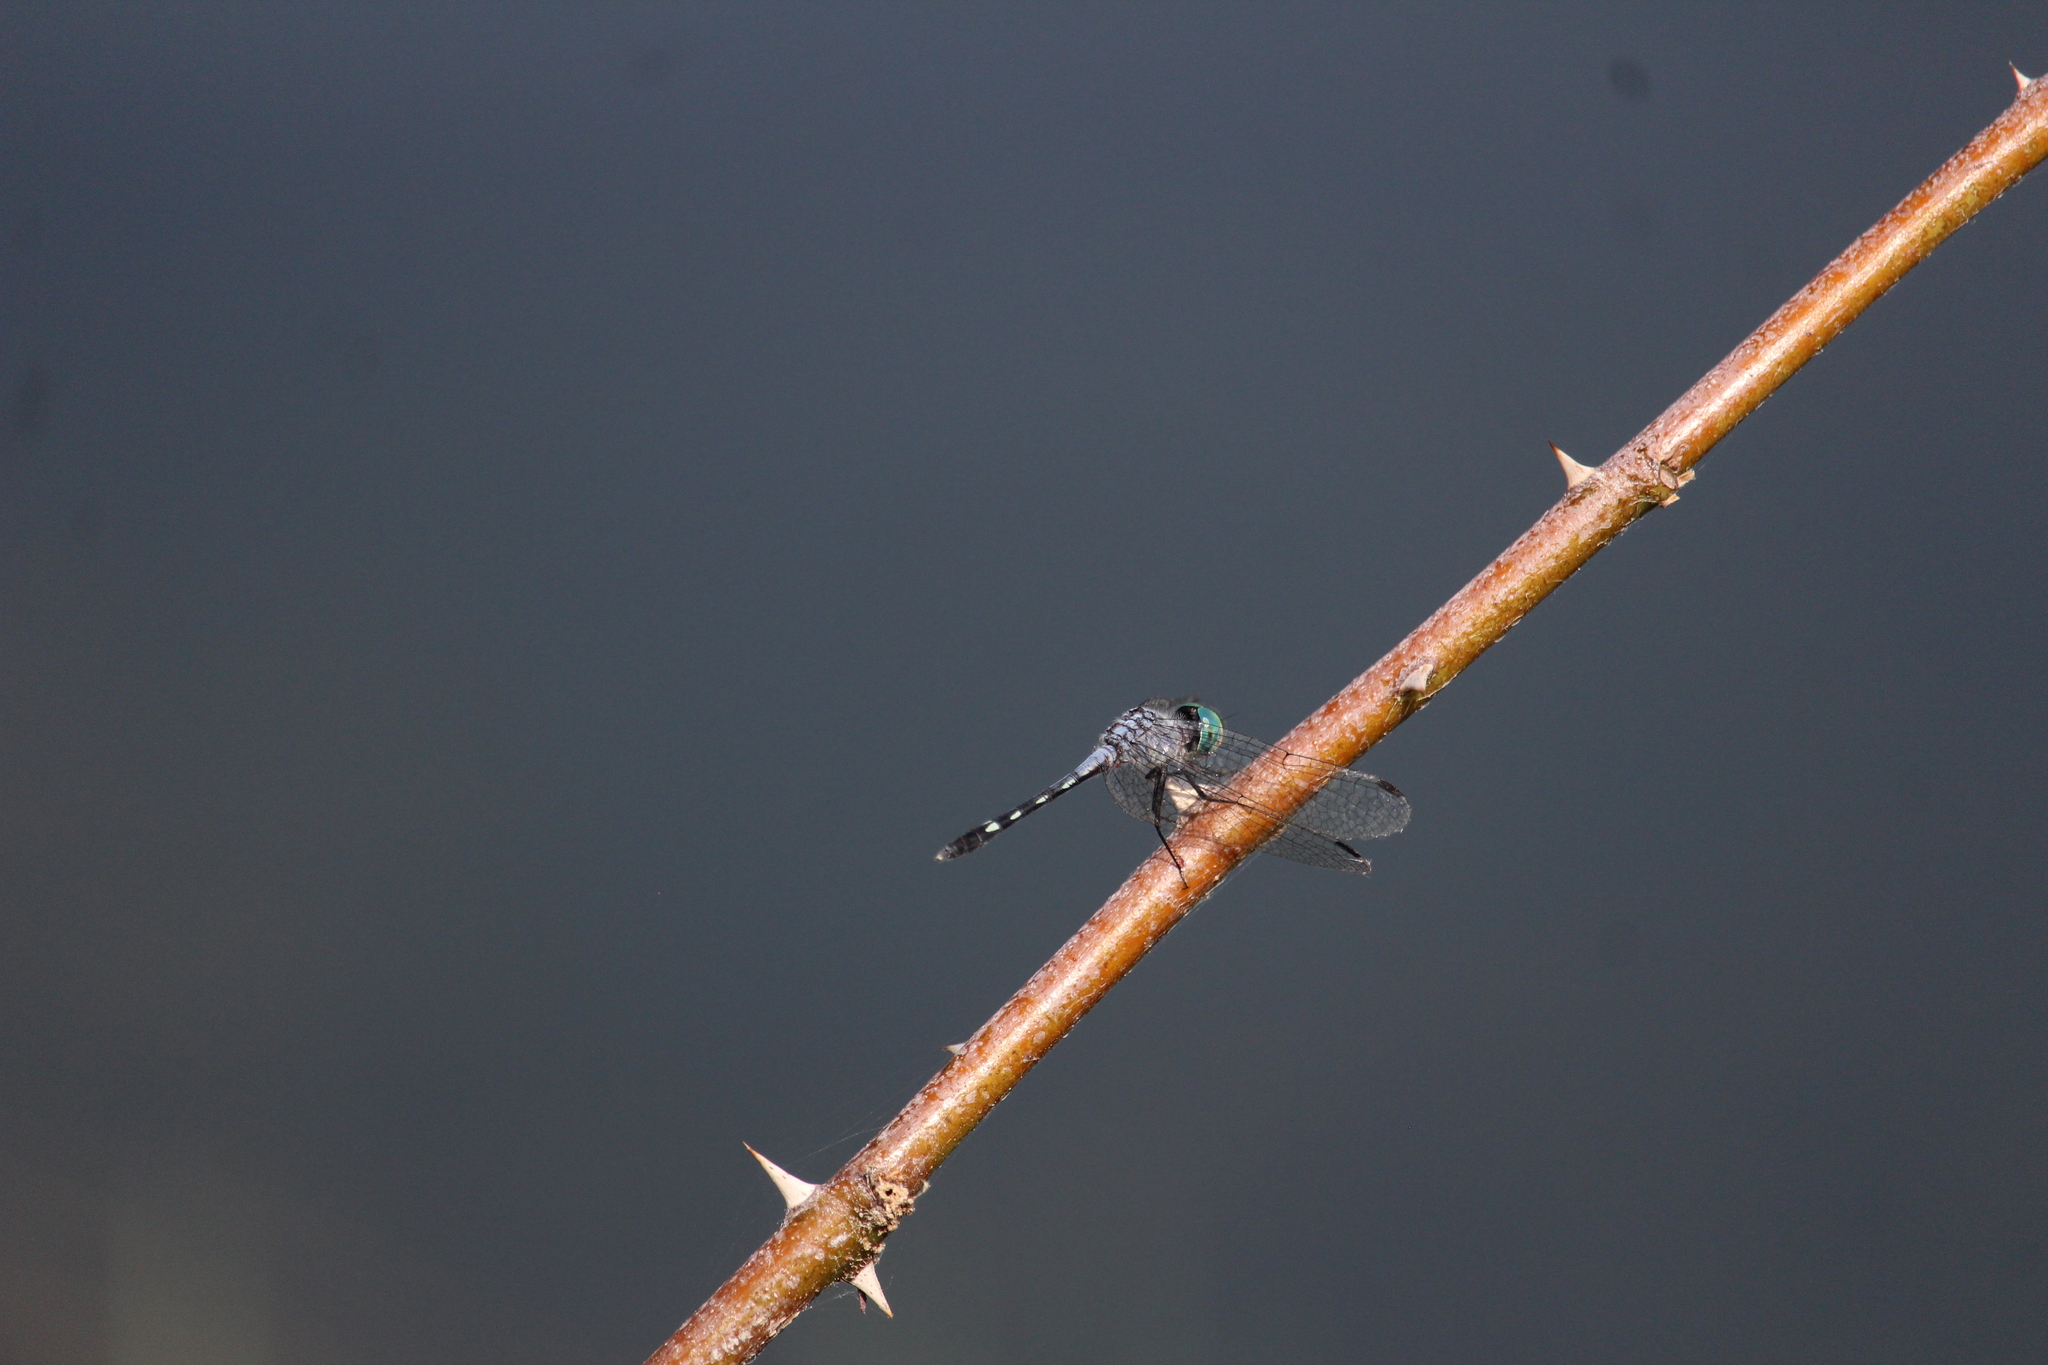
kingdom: Animalia
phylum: Arthropoda
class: Insecta
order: Odonata
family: Libellulidae
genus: Micrathyria
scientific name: Micrathyria debilis
